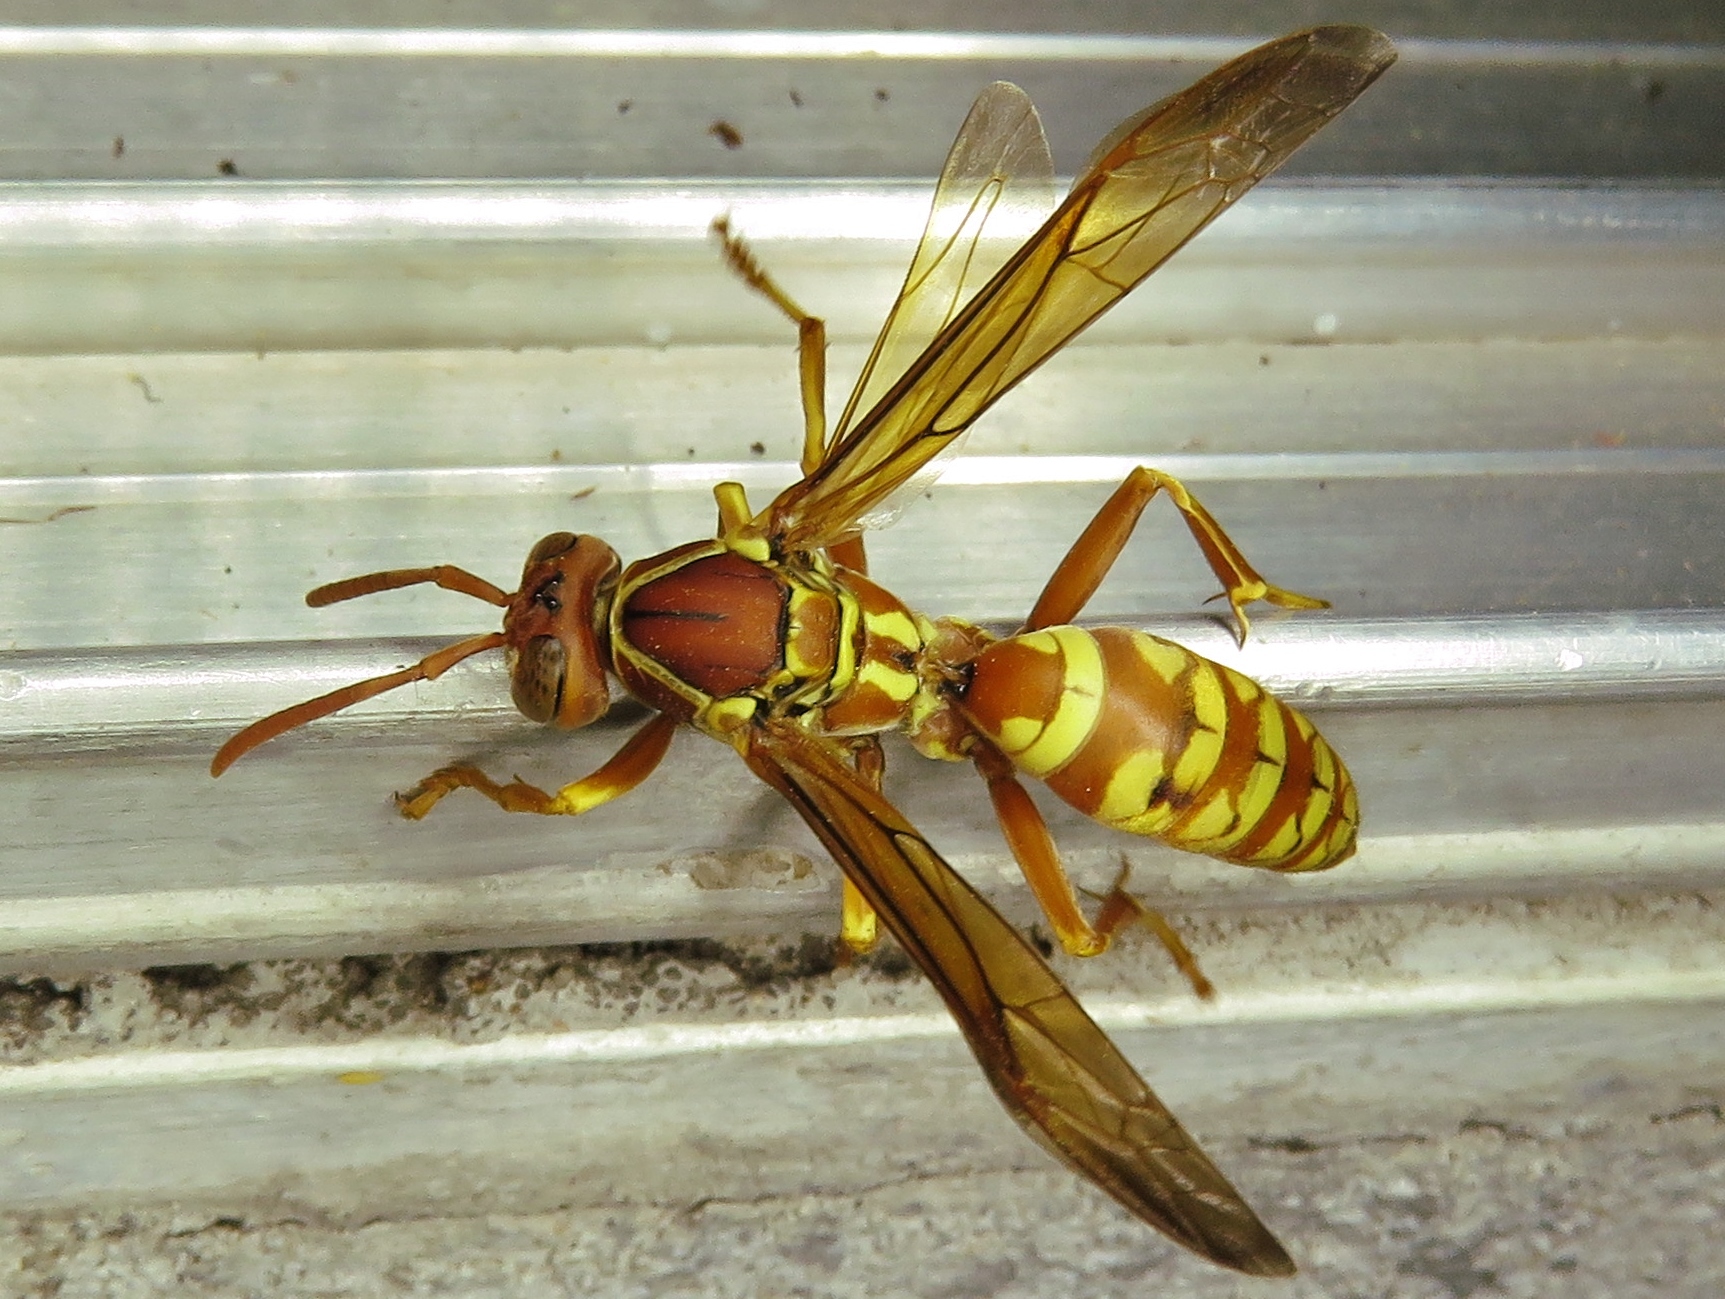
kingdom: Animalia
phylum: Arthropoda
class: Insecta
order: Hymenoptera
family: Eumenidae
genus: Polistes
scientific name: Polistes apachus
